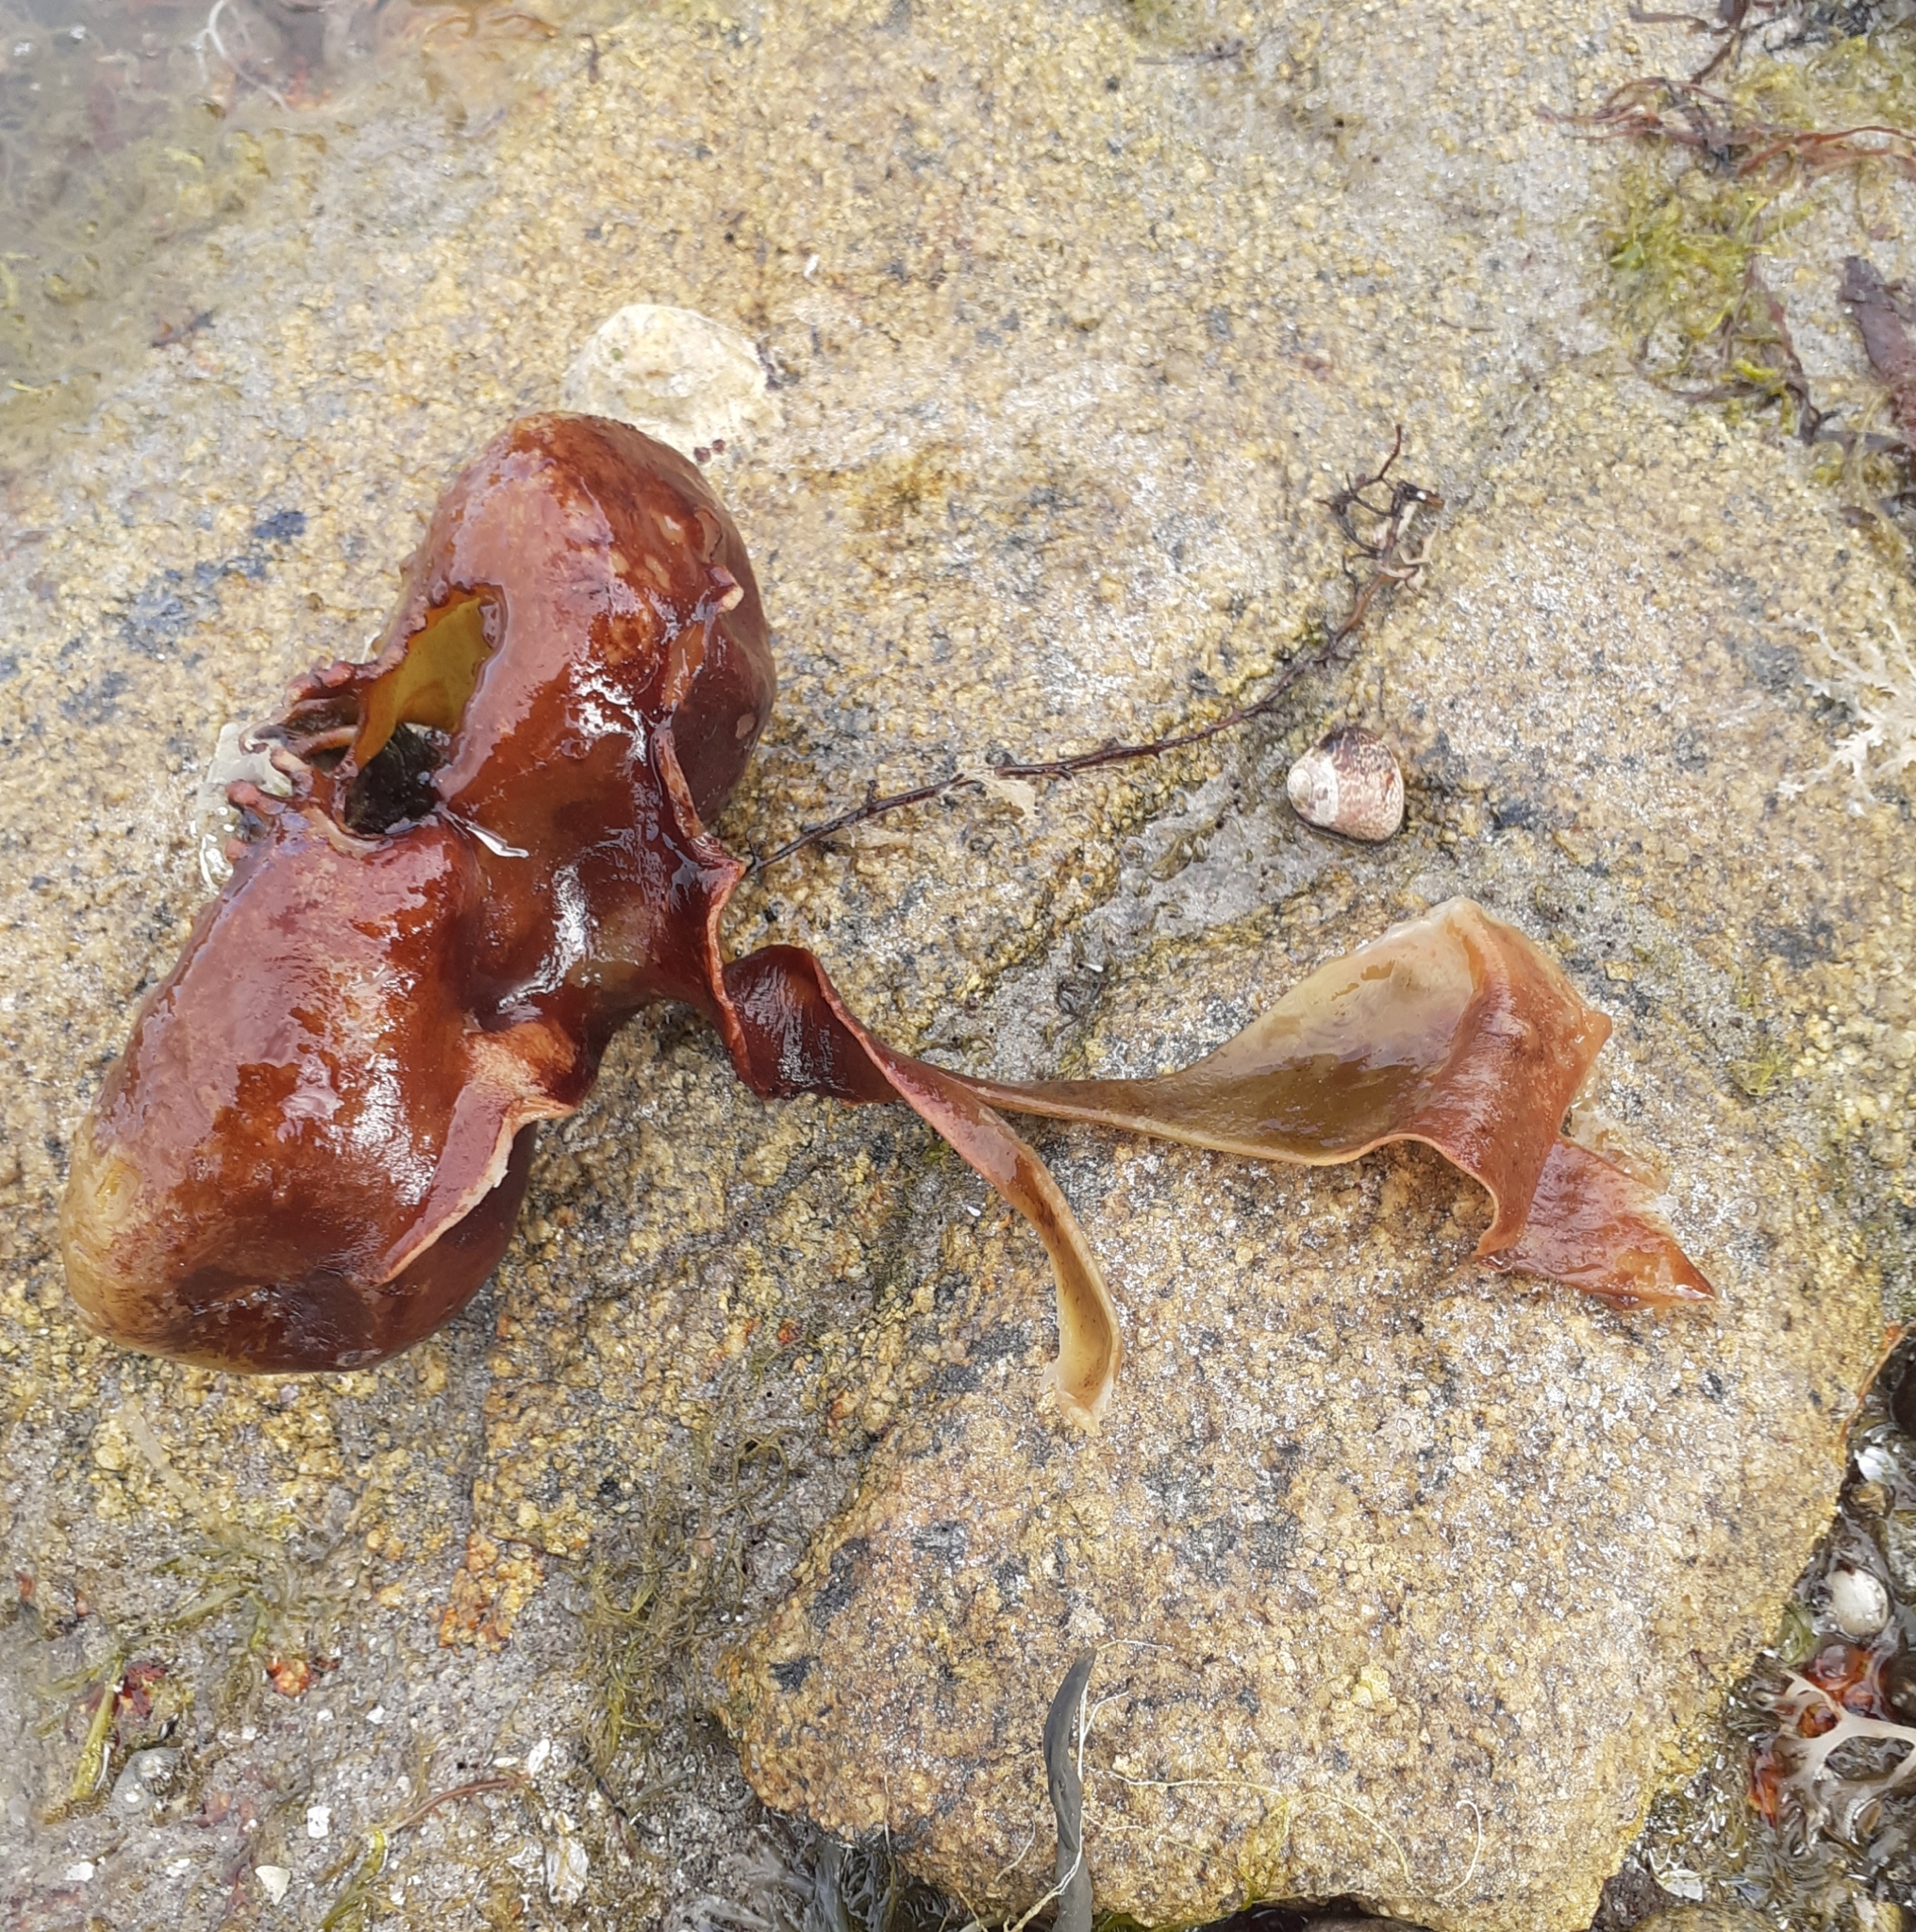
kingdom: Chromista
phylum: Ochrophyta
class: Phaeophyceae
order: Tilopteridales
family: Phyllariaceae
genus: Saccorhiza
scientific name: Saccorhiza polyschides
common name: Furbelows
